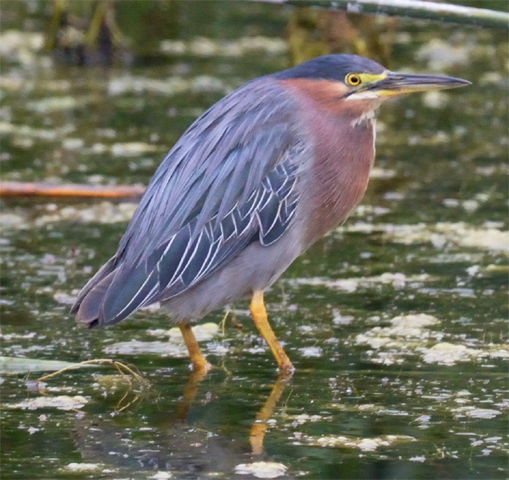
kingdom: Animalia
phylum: Chordata
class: Aves
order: Pelecaniformes
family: Ardeidae
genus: Butorides
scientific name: Butorides virescens
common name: Green heron
